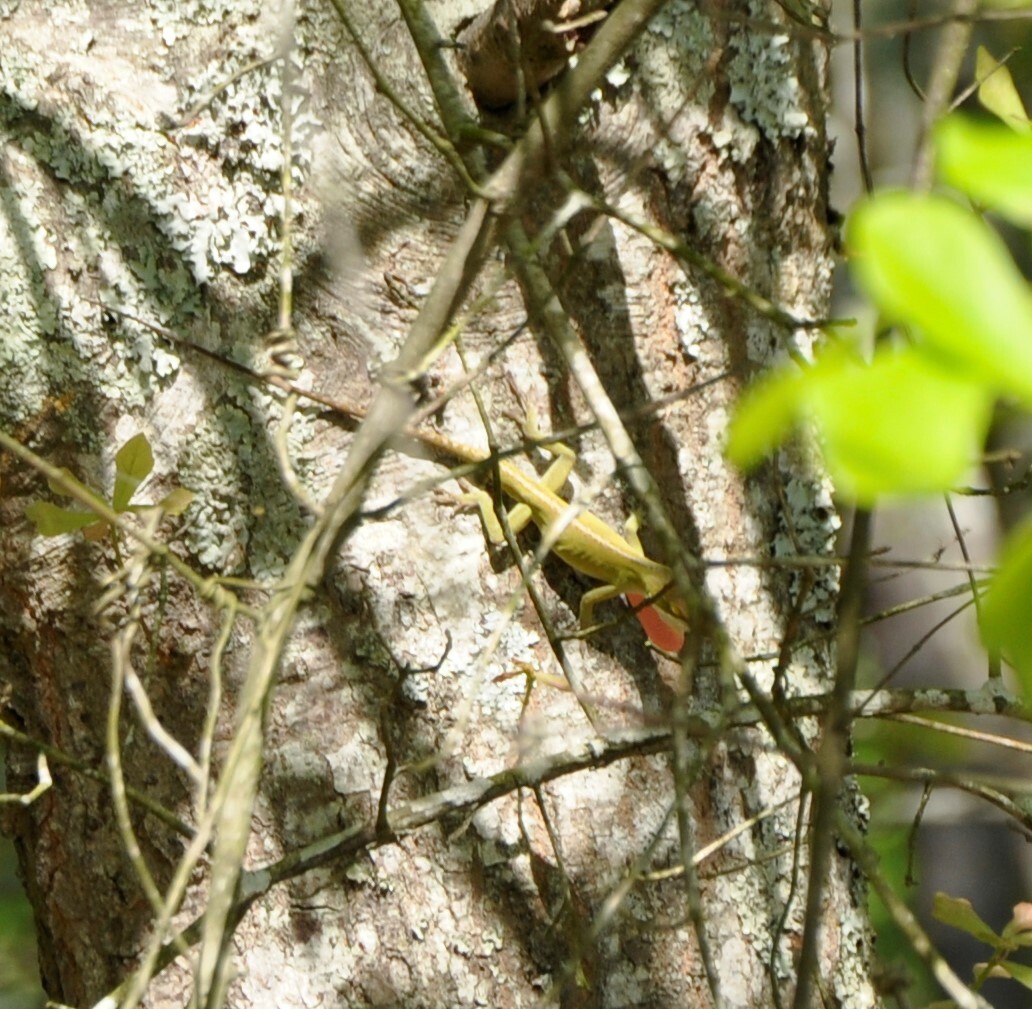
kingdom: Animalia
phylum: Chordata
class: Squamata
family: Dactyloidae
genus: Anolis
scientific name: Anolis carolinensis
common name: Green anole
